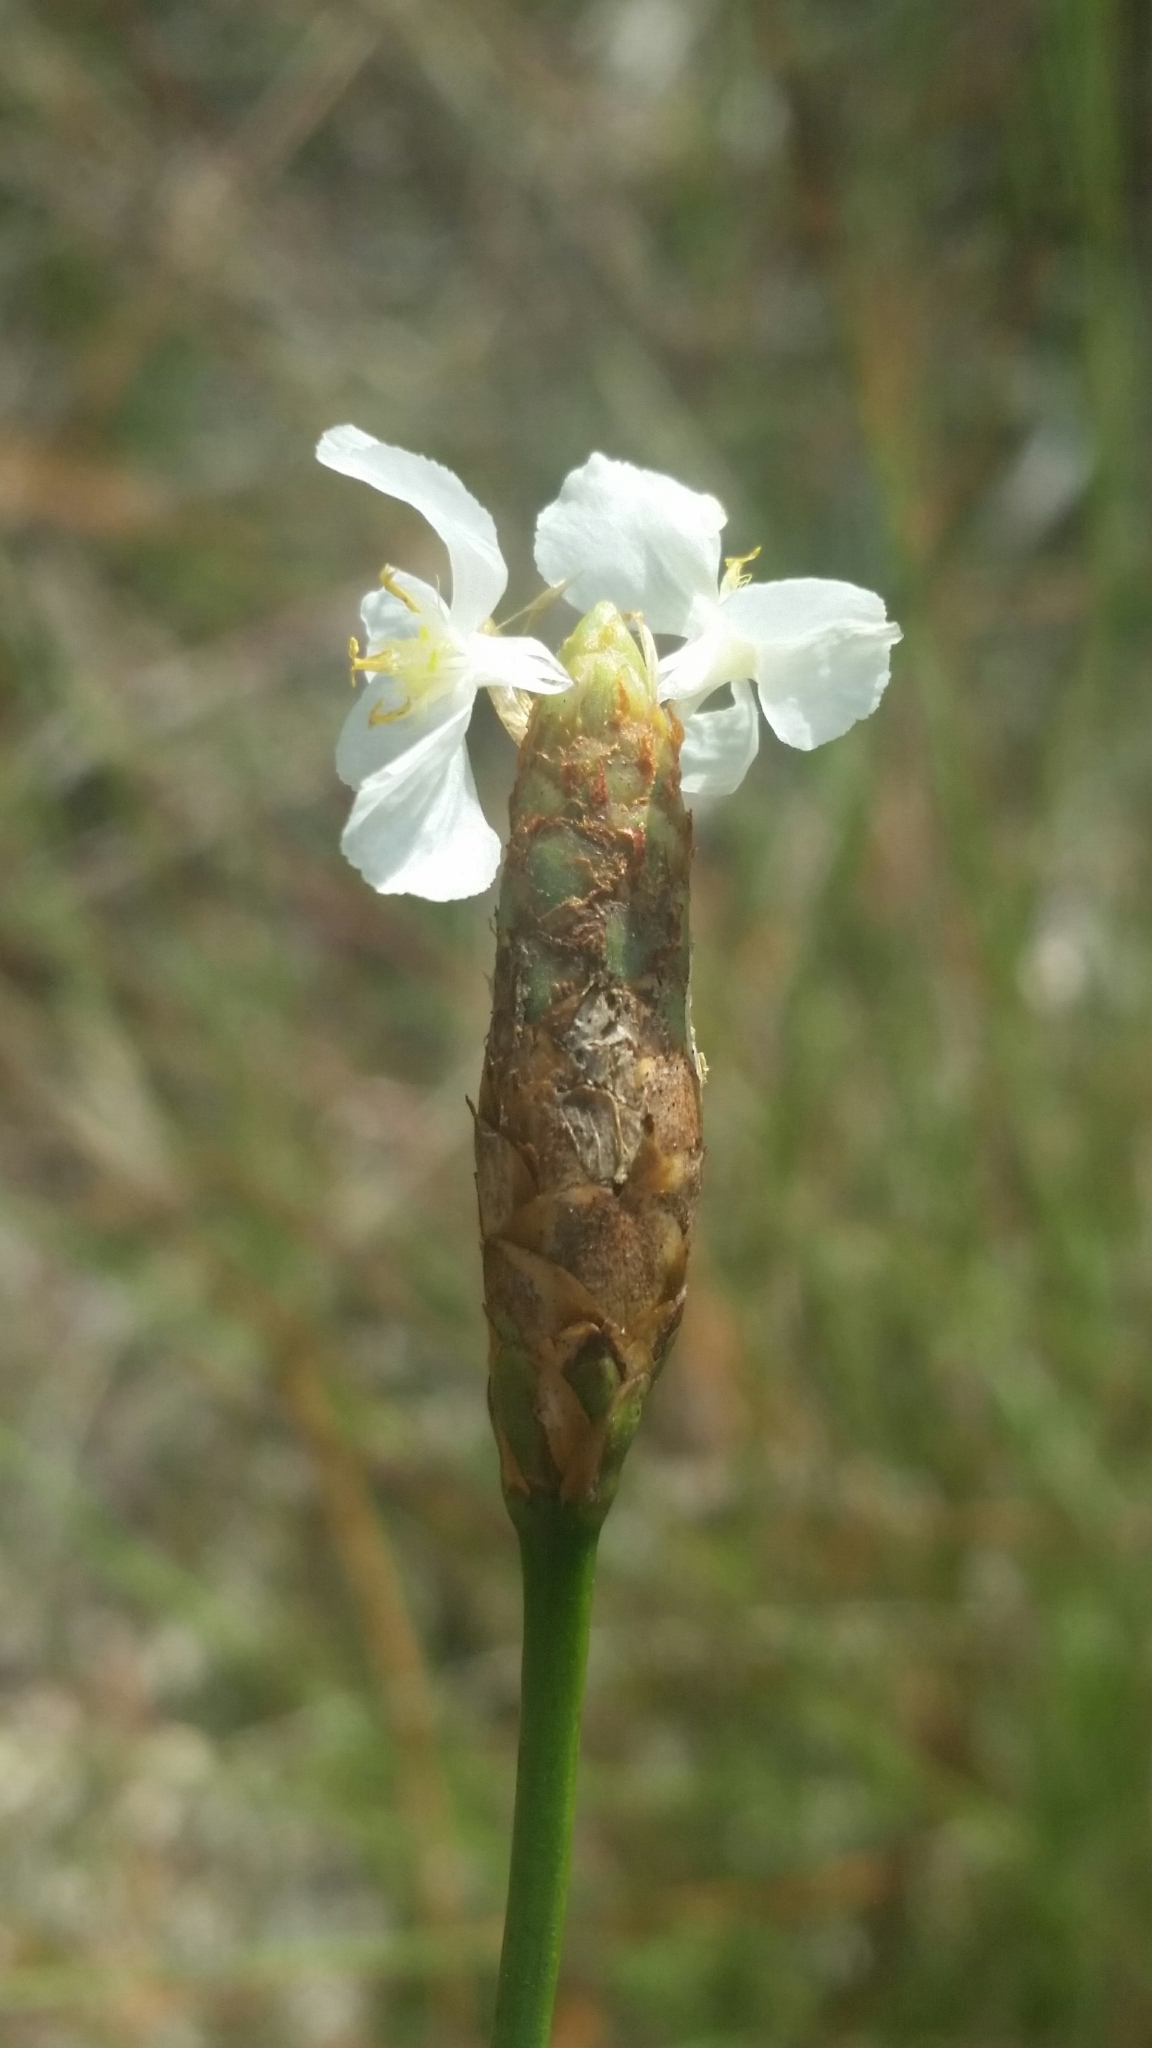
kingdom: Plantae
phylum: Tracheophyta
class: Liliopsida
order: Poales
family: Xyridaceae
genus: Xyris
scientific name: Xyris caroliniana
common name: Carolina yellow-eyed-grass
